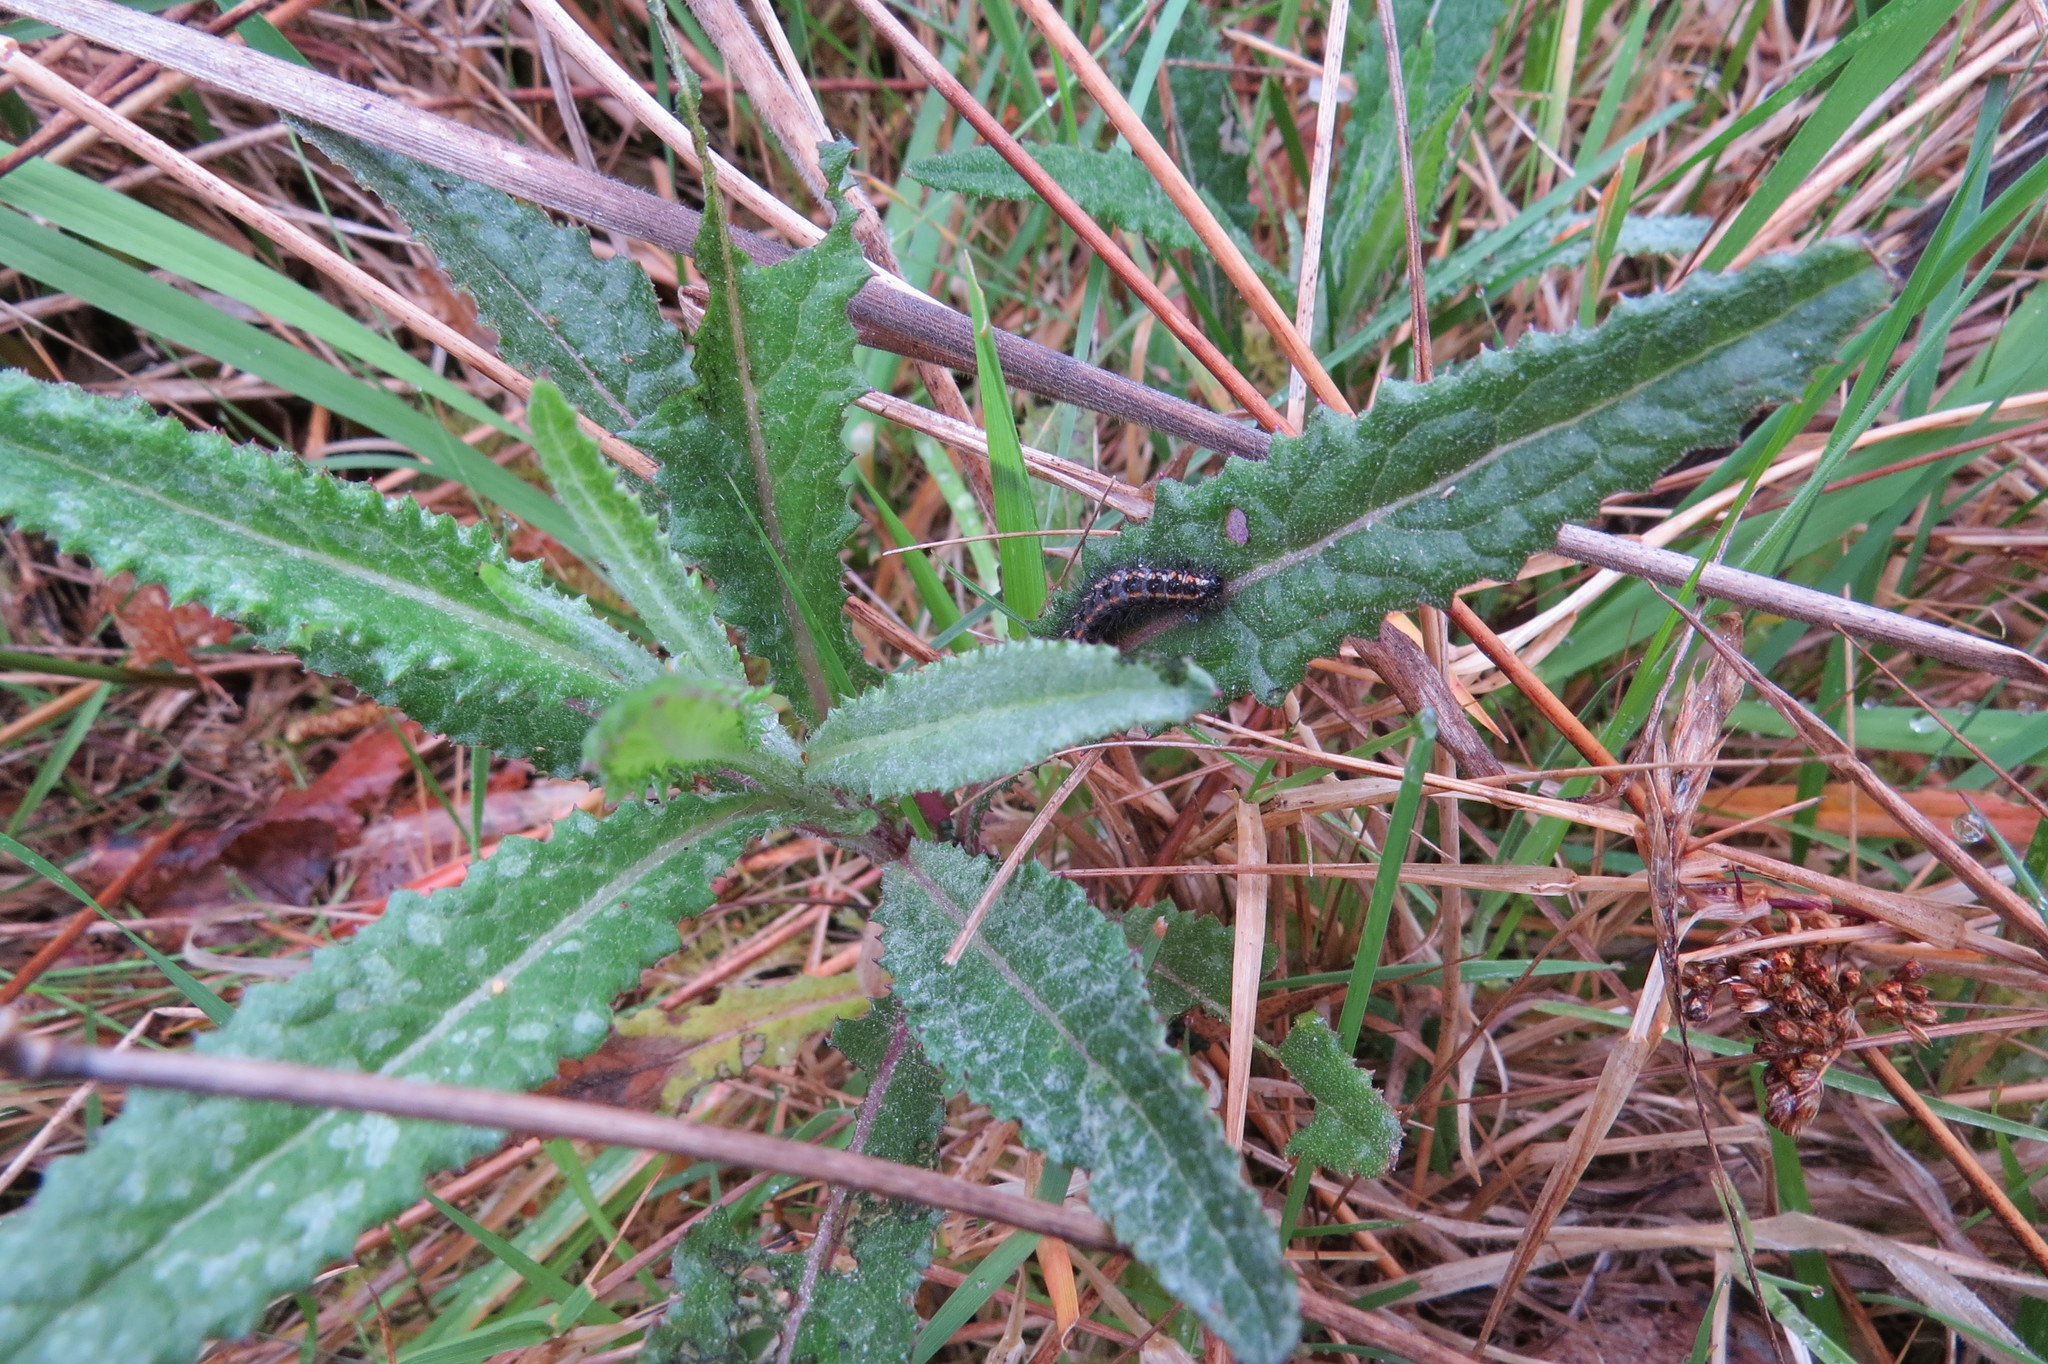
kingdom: Plantae
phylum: Tracheophyta
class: Magnoliopsida
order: Asterales
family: Asteraceae
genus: Senecio
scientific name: Senecio minimus
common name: Toothed fireweed
